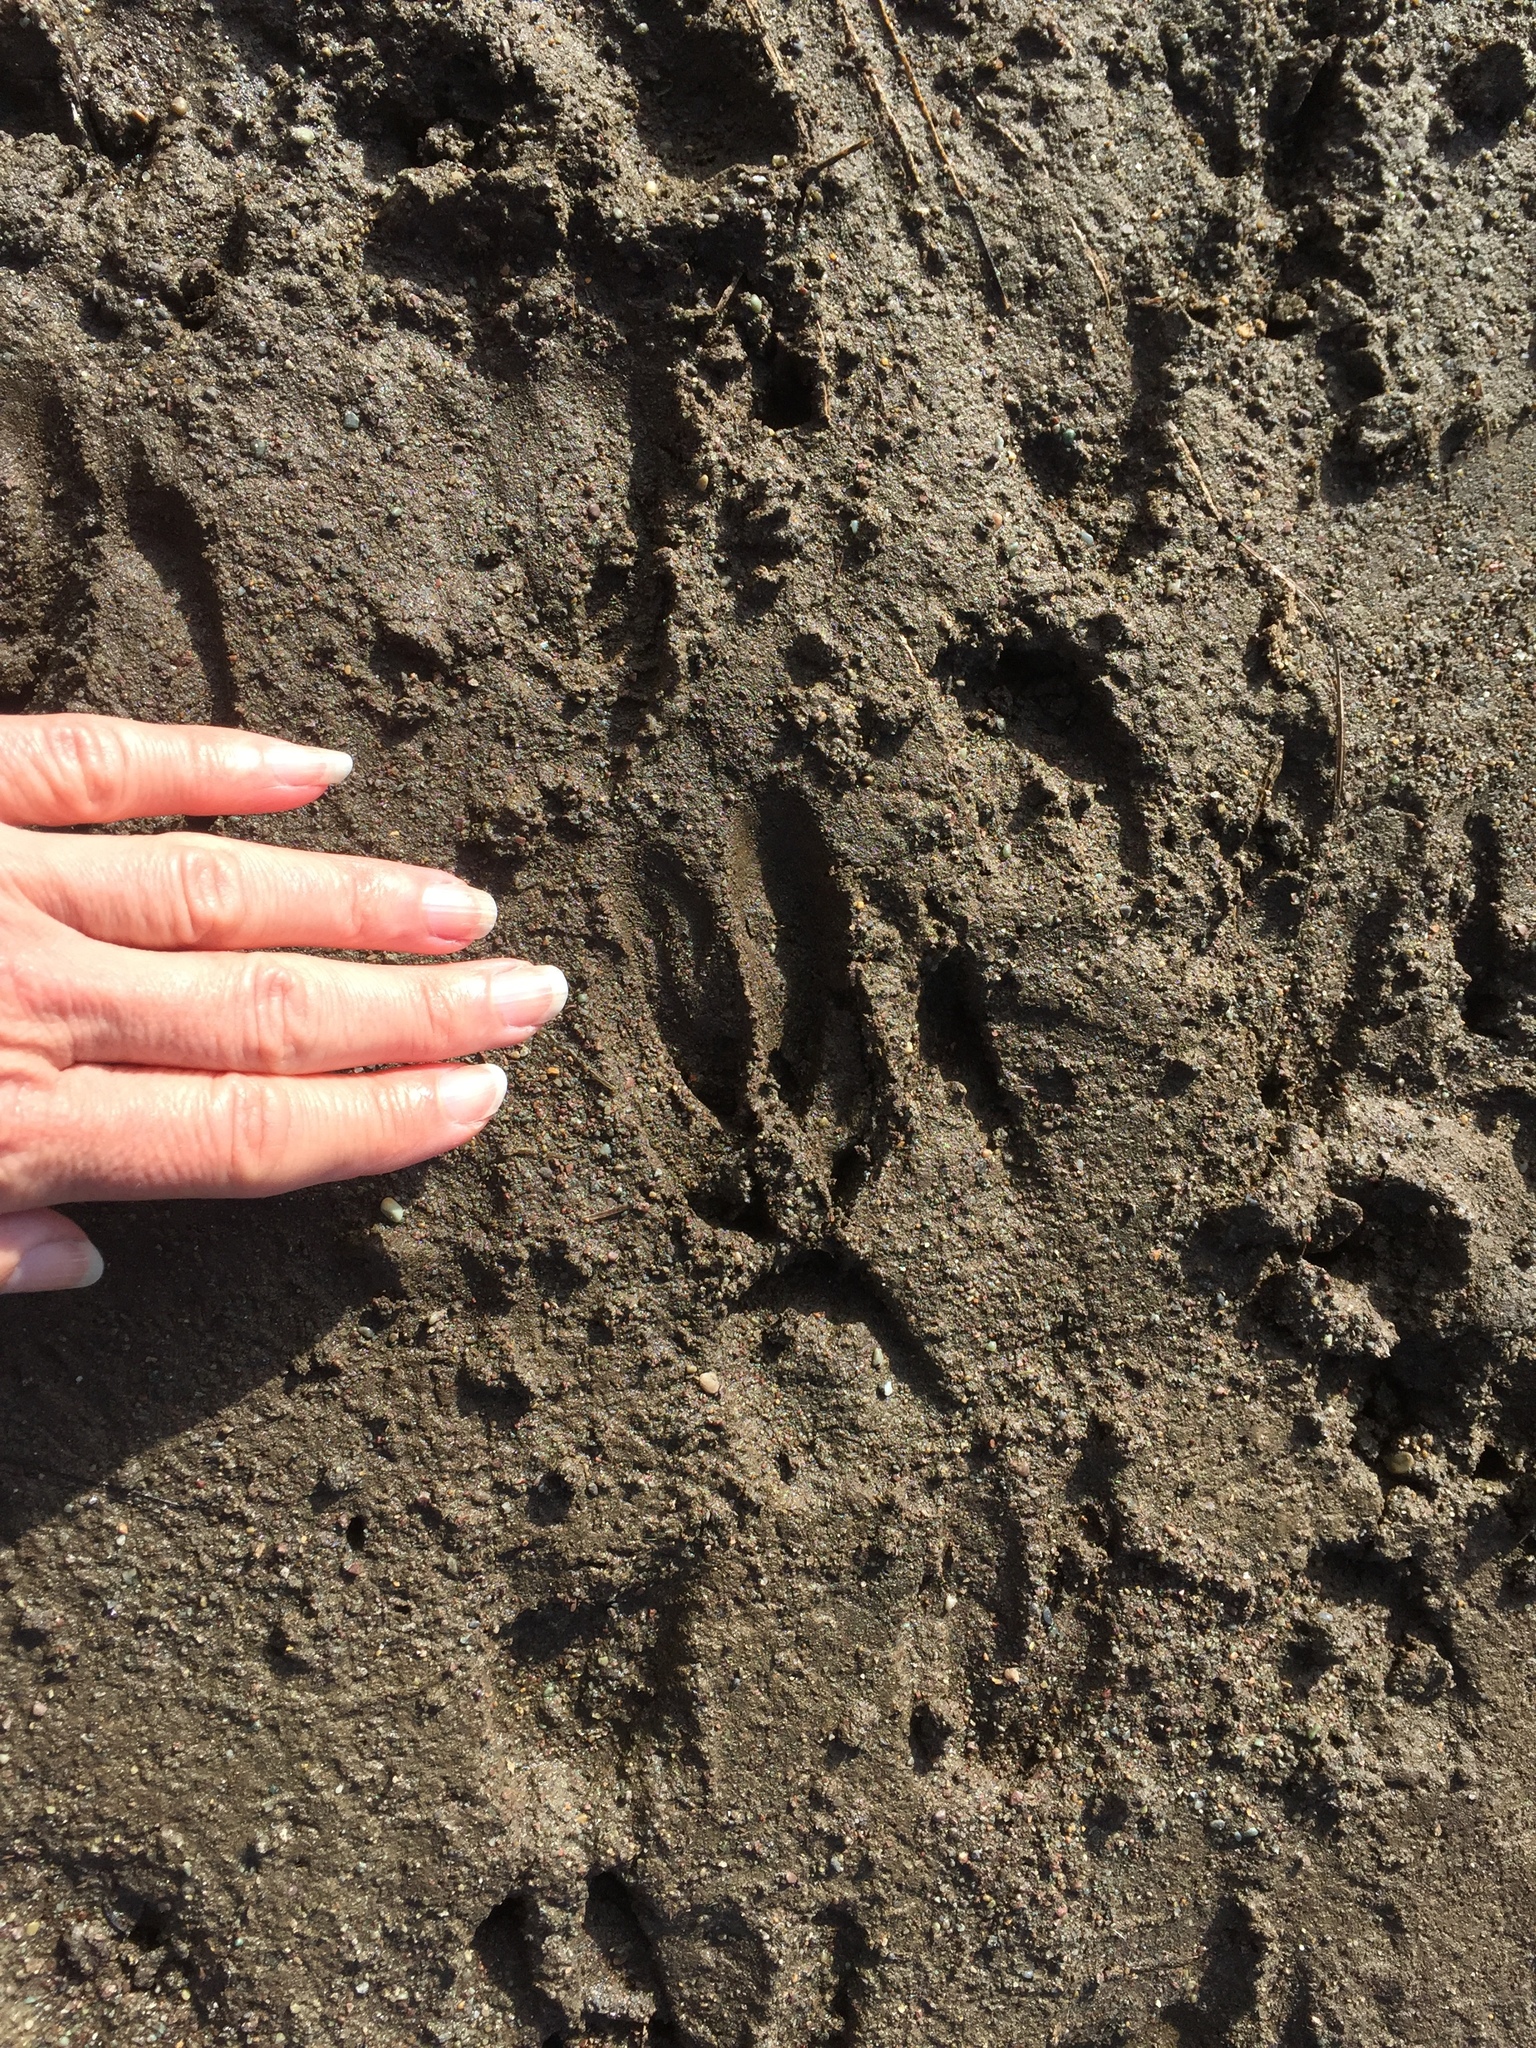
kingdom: Animalia
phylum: Chordata
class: Mammalia
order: Artiodactyla
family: Cervidae
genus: Odocoileus
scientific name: Odocoileus hemionus
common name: Mule deer
